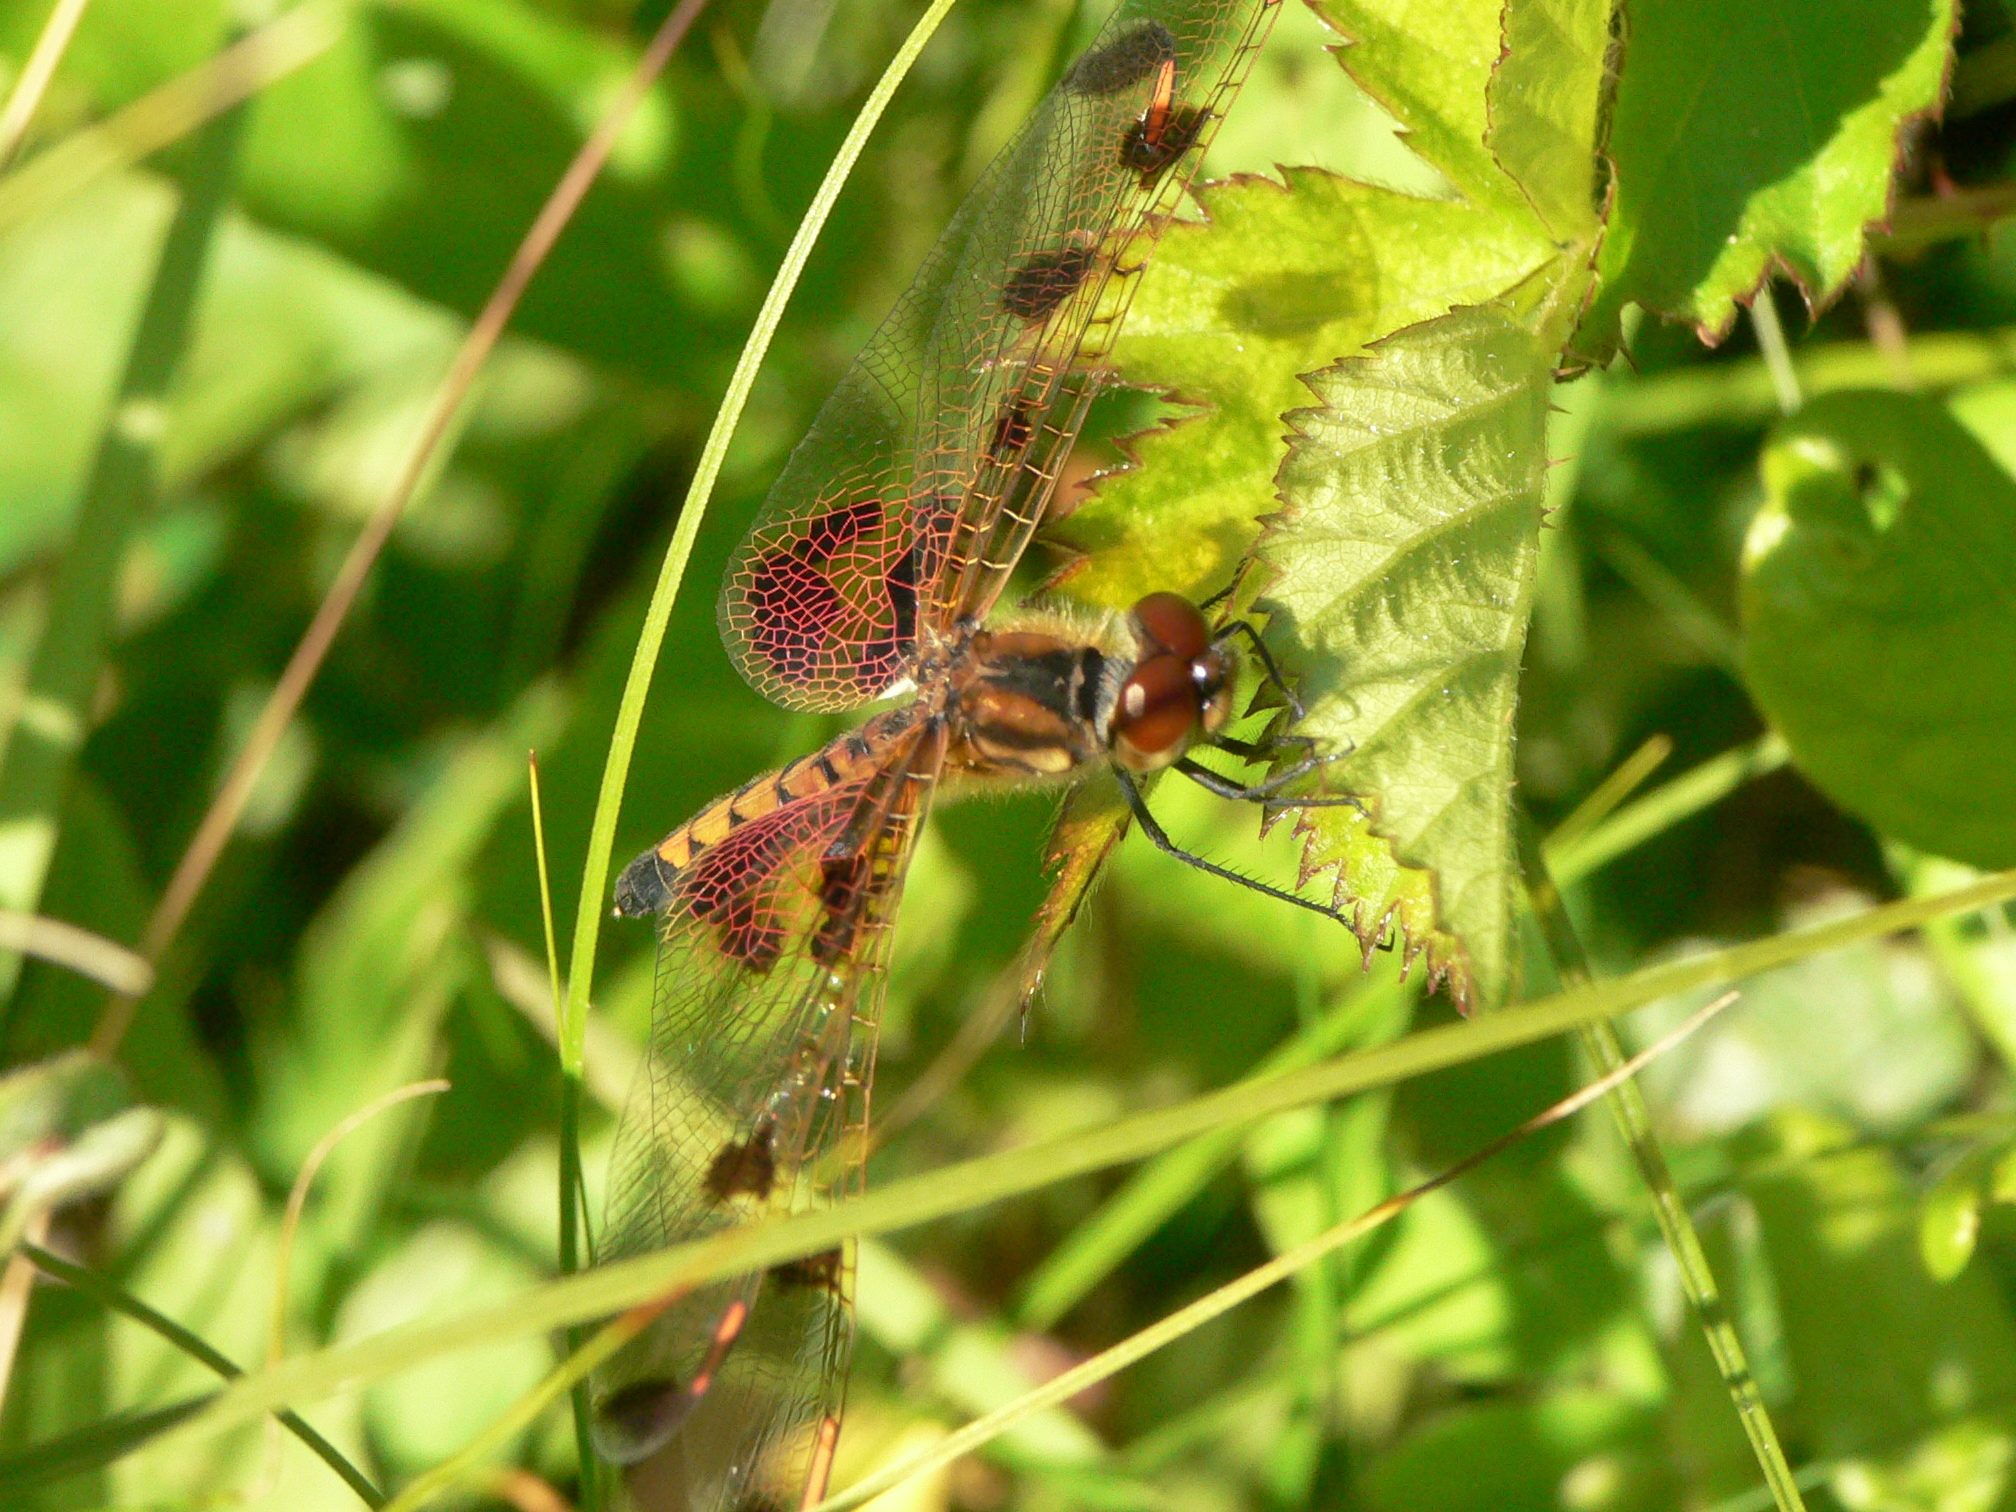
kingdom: Animalia
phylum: Arthropoda
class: Insecta
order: Odonata
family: Libellulidae
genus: Celithemis
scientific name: Celithemis elisa
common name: Calico pennant
